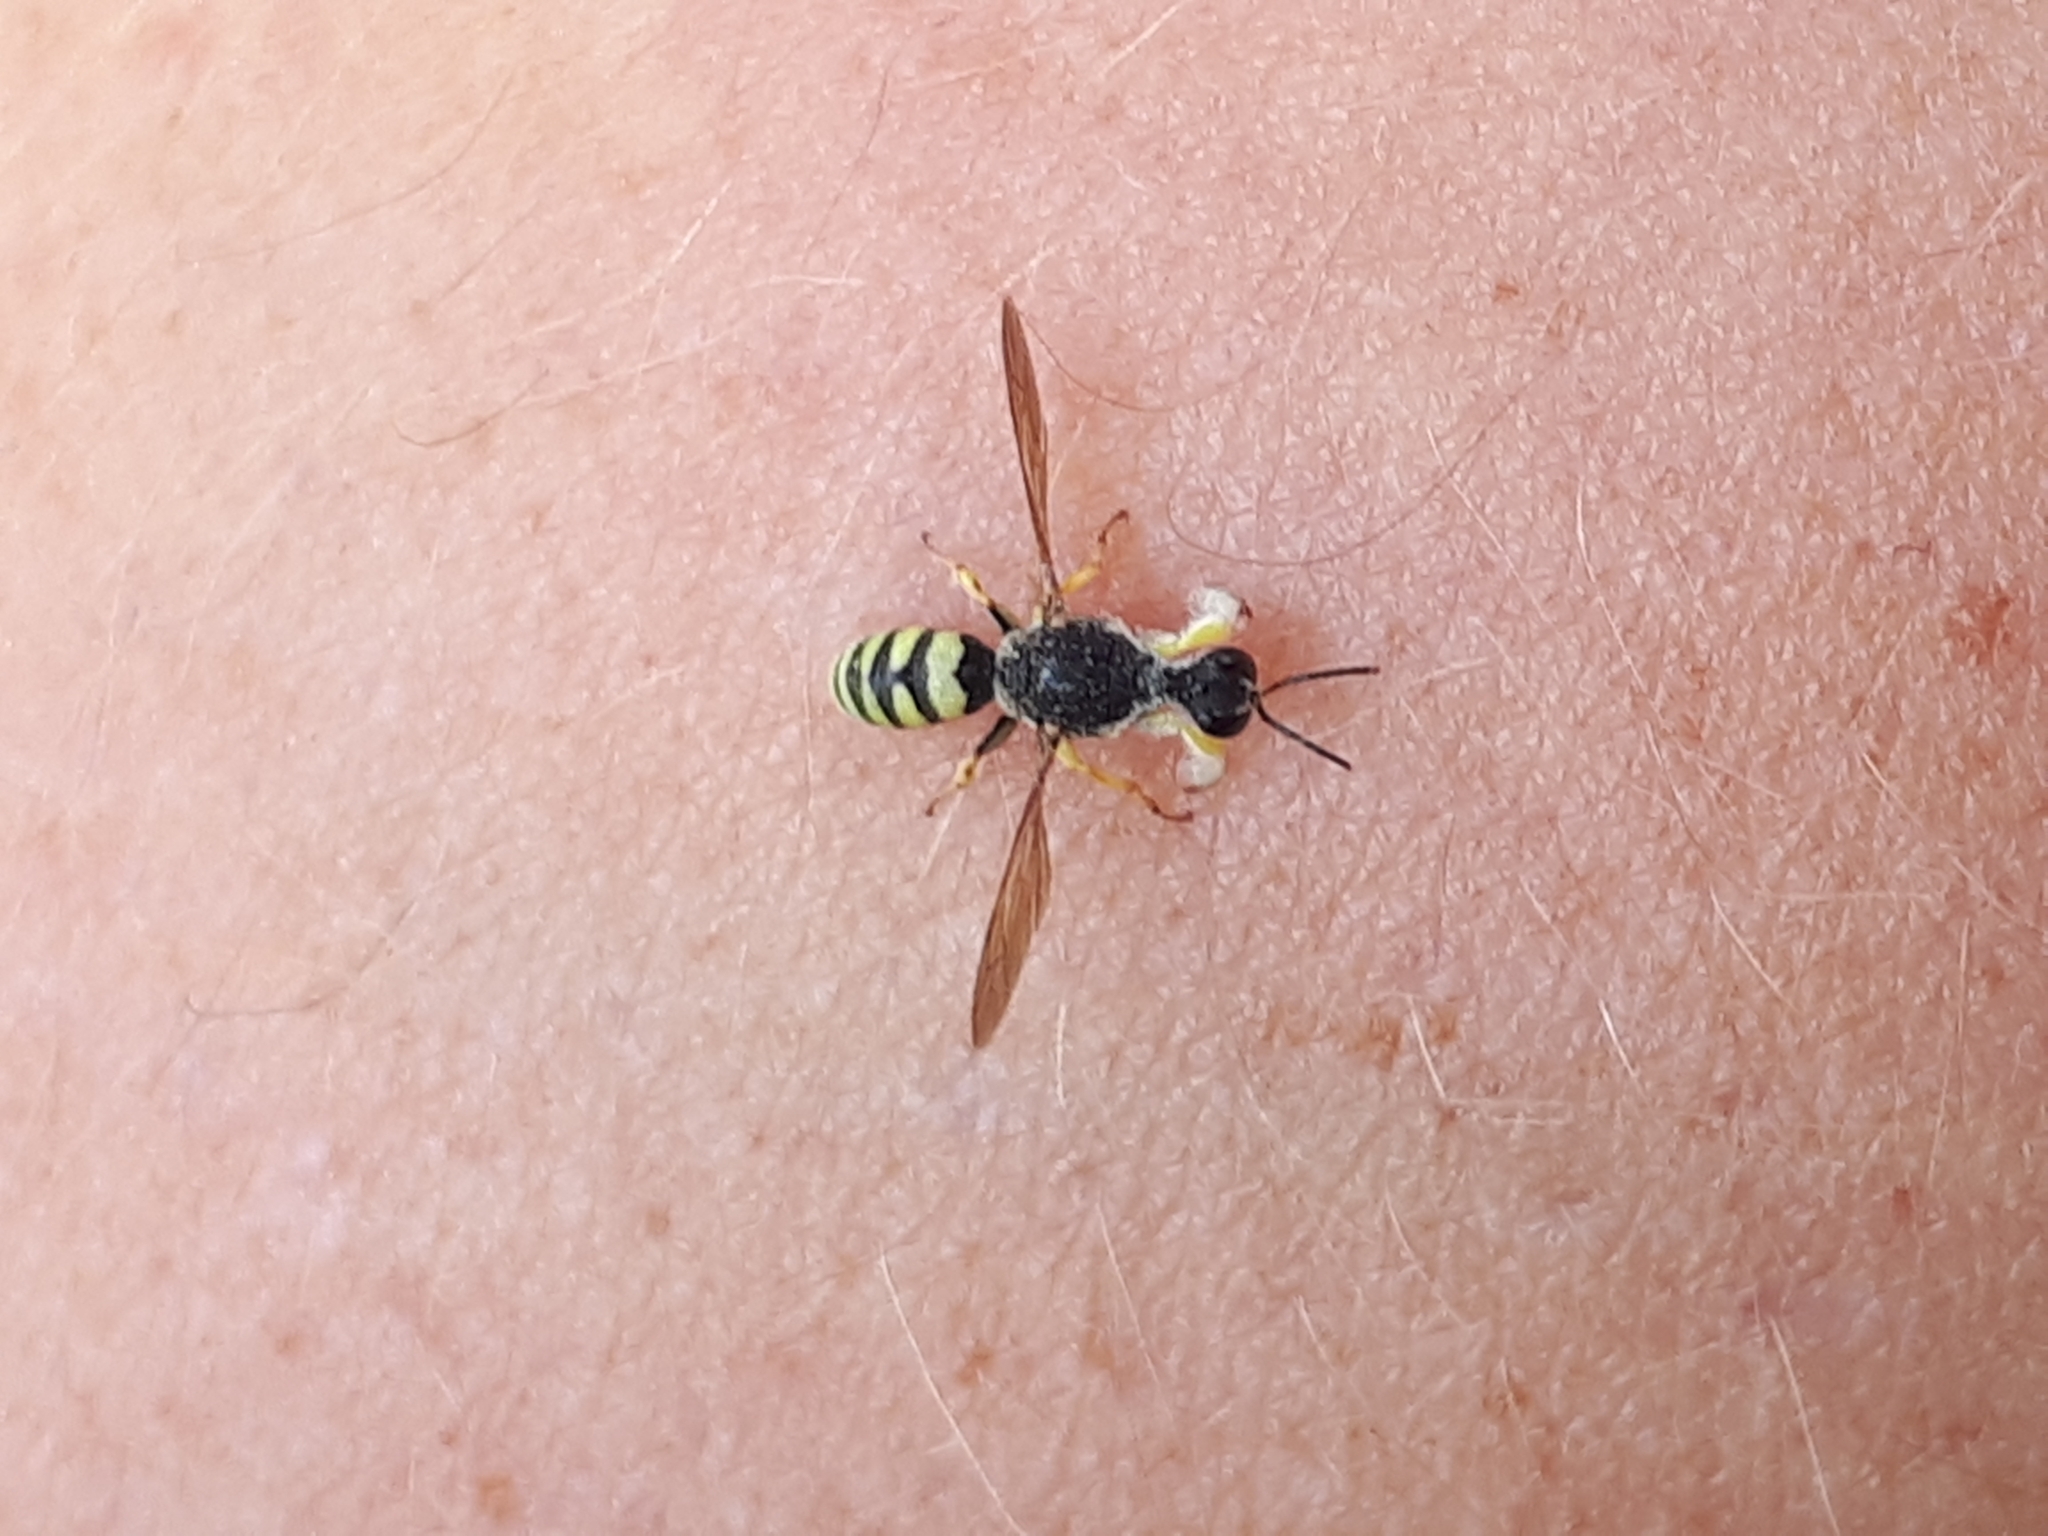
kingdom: Animalia
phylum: Arthropoda
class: Insecta
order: Hymenoptera
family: Crabronidae
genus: Lestica
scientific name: Lestica clypeata
